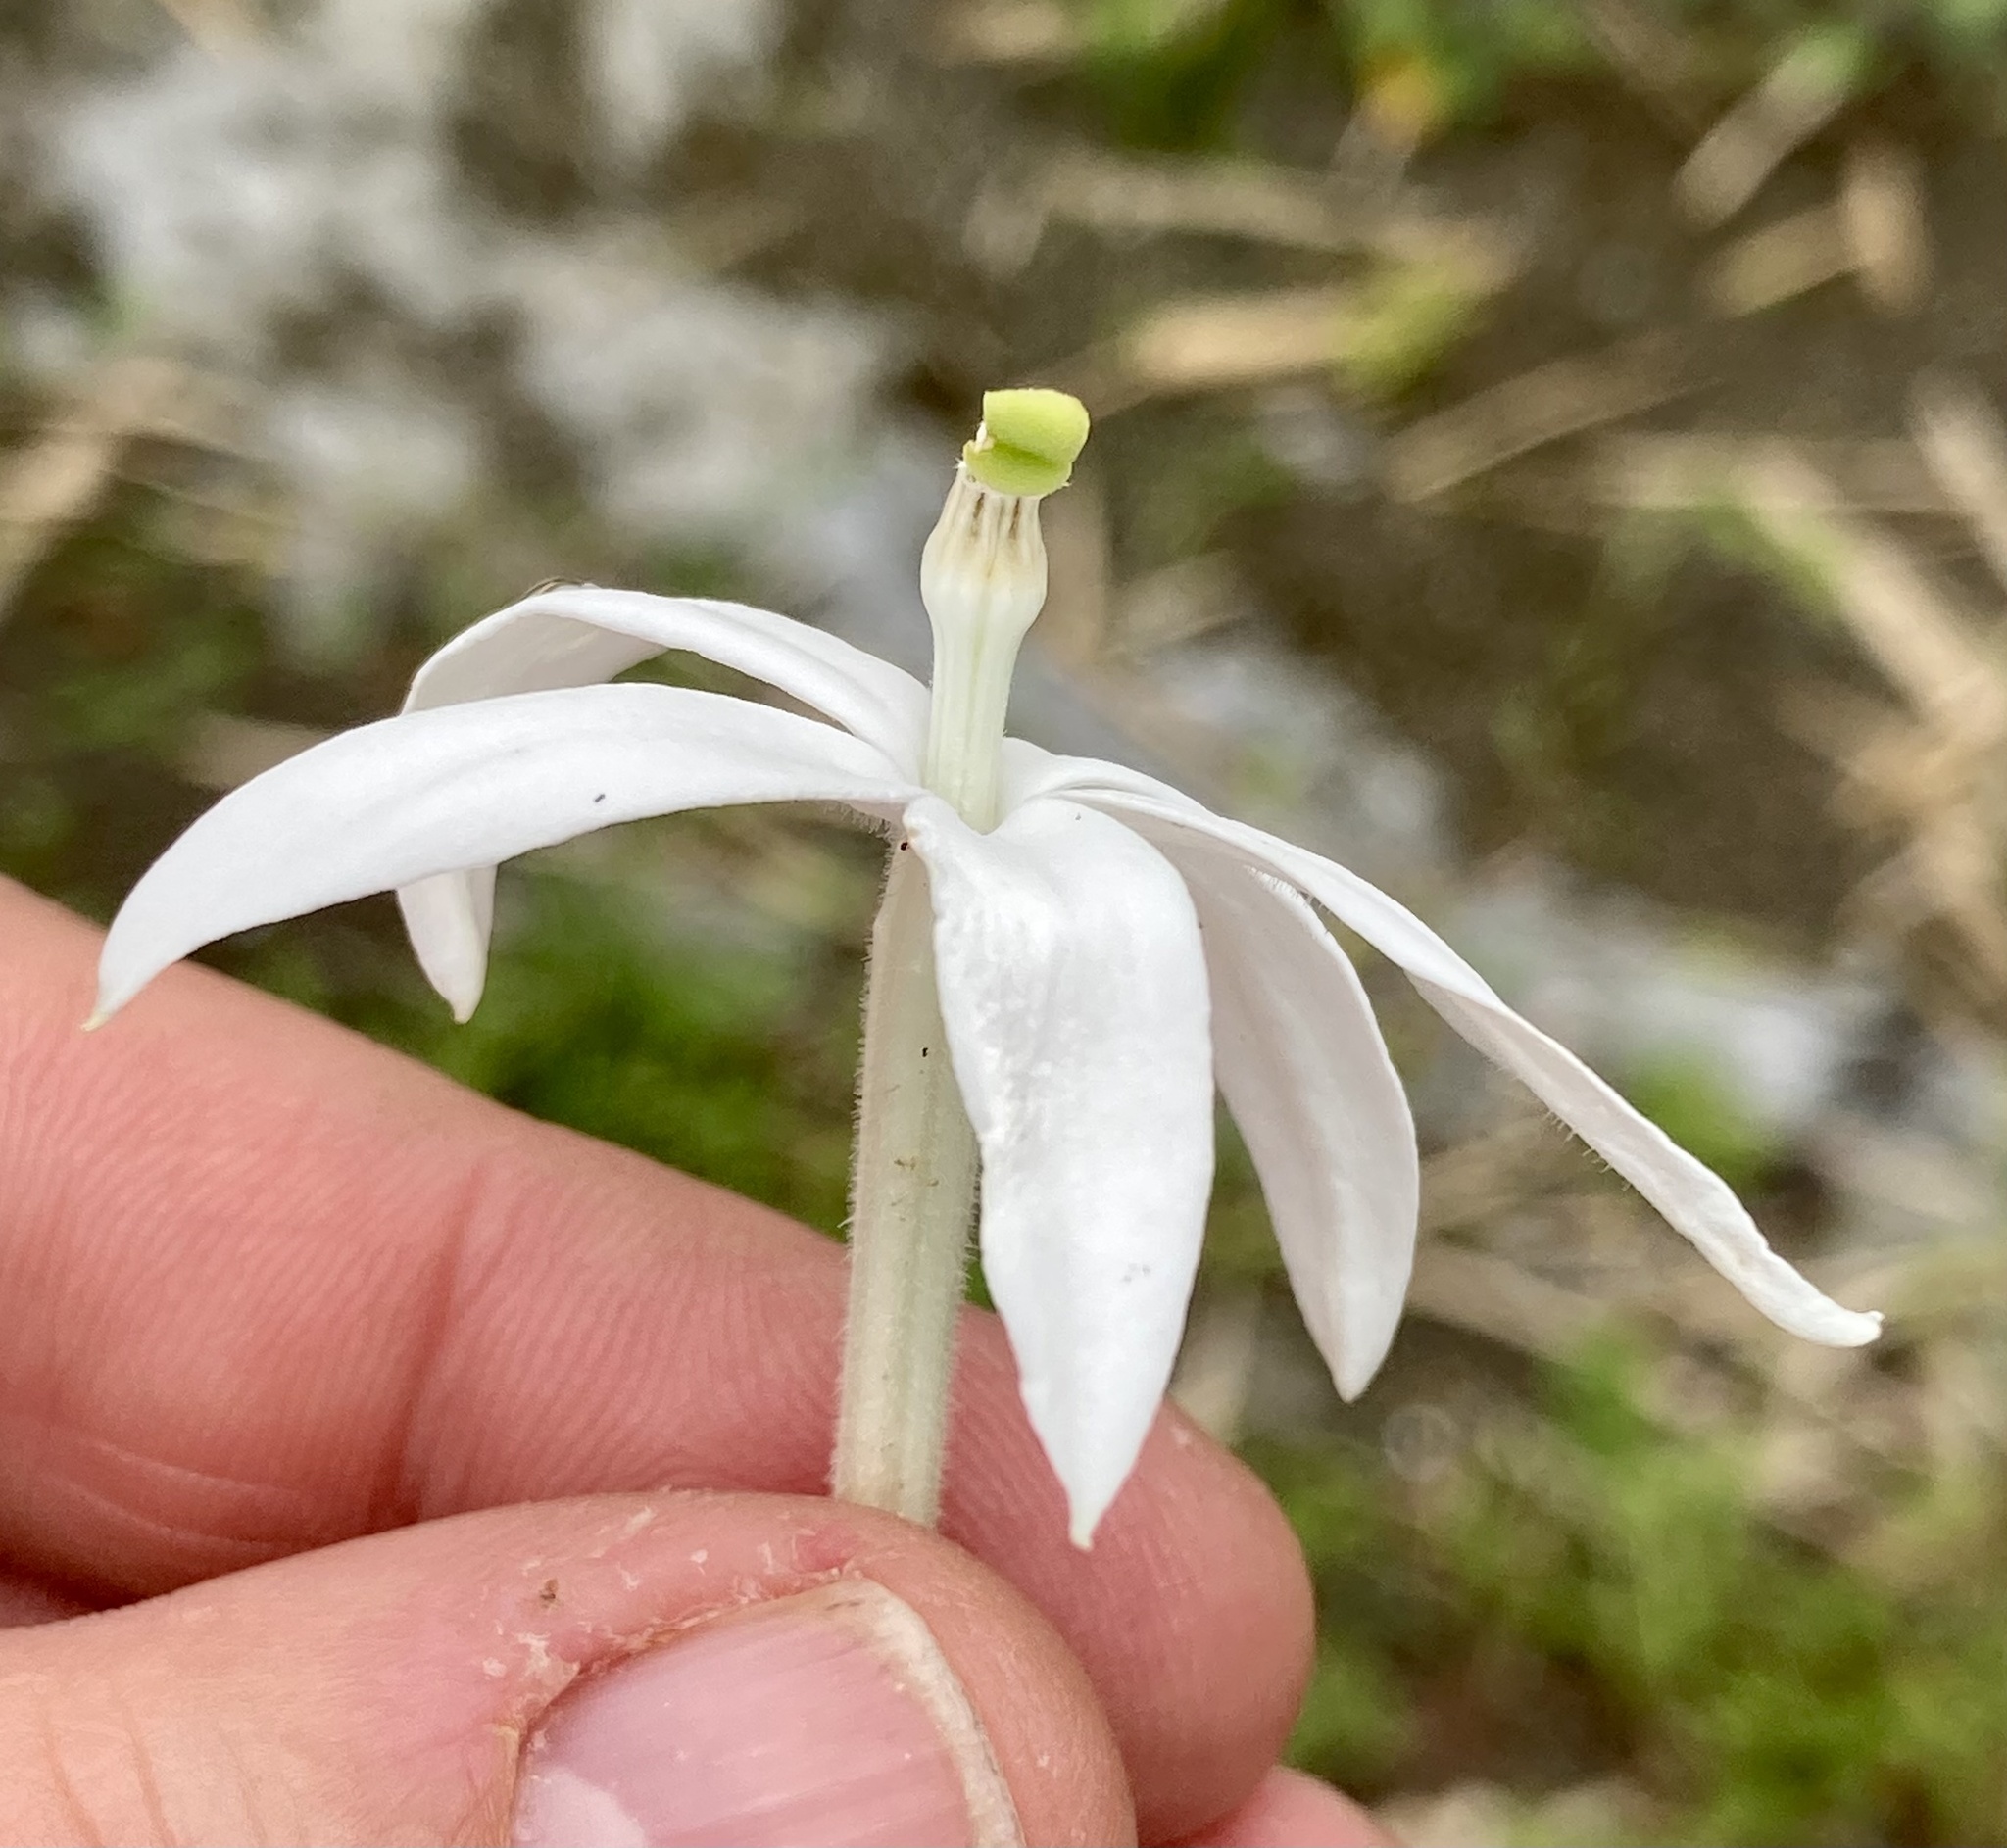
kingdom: Plantae
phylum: Tracheophyta
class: Magnoliopsida
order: Asterales
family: Campanulaceae
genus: Hippobroma
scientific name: Hippobroma longiflora
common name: Madamfate
